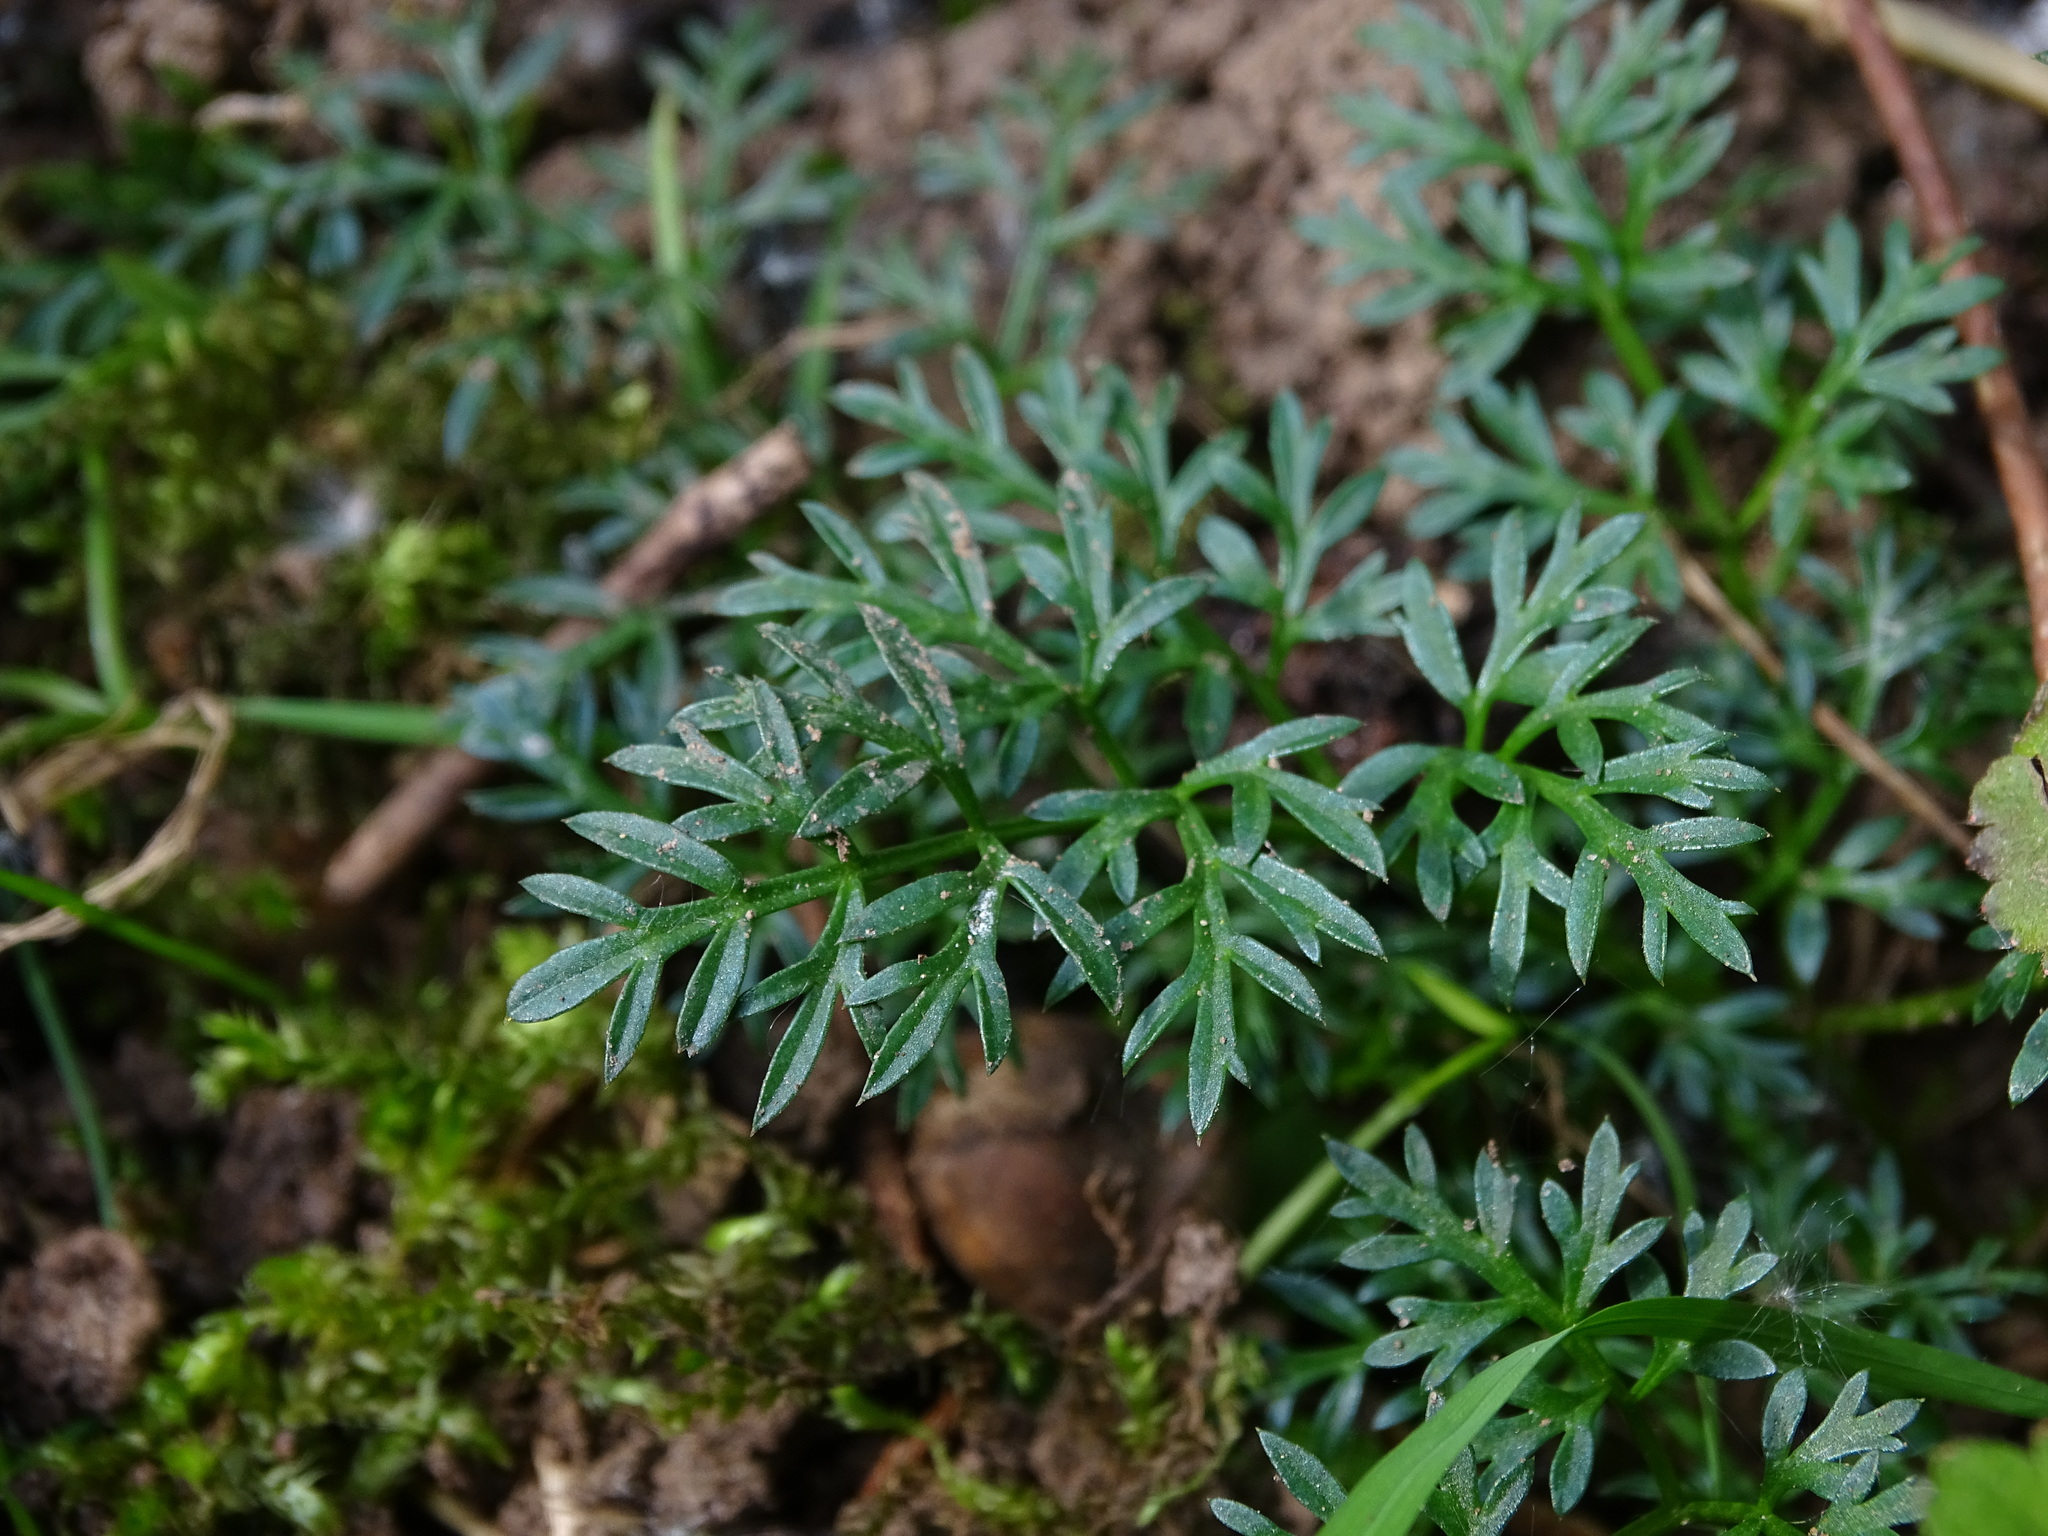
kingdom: Plantae
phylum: Tracheophyta
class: Magnoliopsida
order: Apiales
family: Apiaceae
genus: Conopodium
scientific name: Conopodium majus
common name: Pignut
